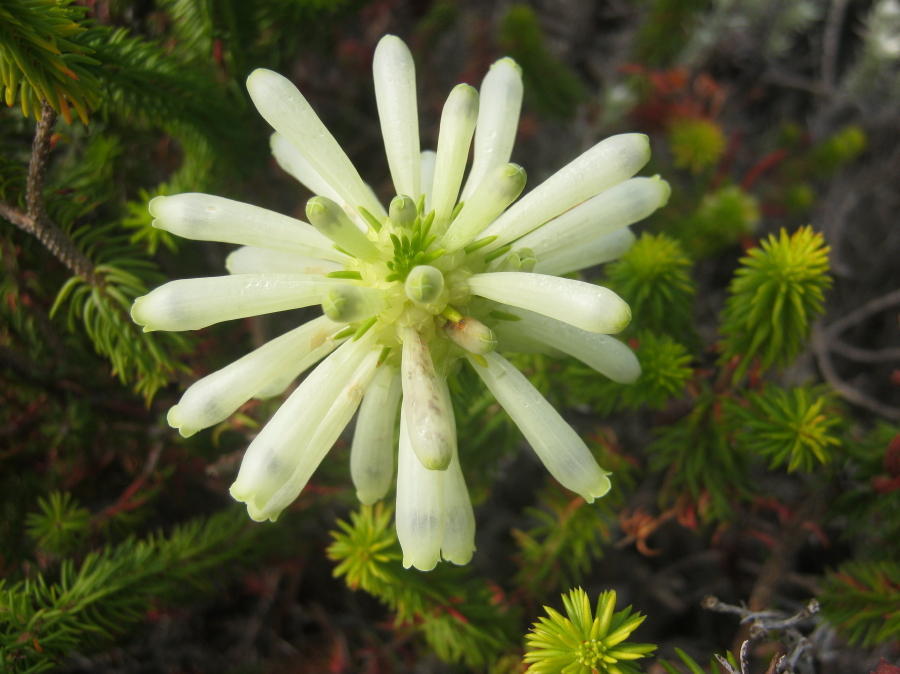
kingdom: Plantae
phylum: Tracheophyta
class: Magnoliopsida
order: Ericales
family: Ericaceae
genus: Erica
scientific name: Erica sessiliflora
